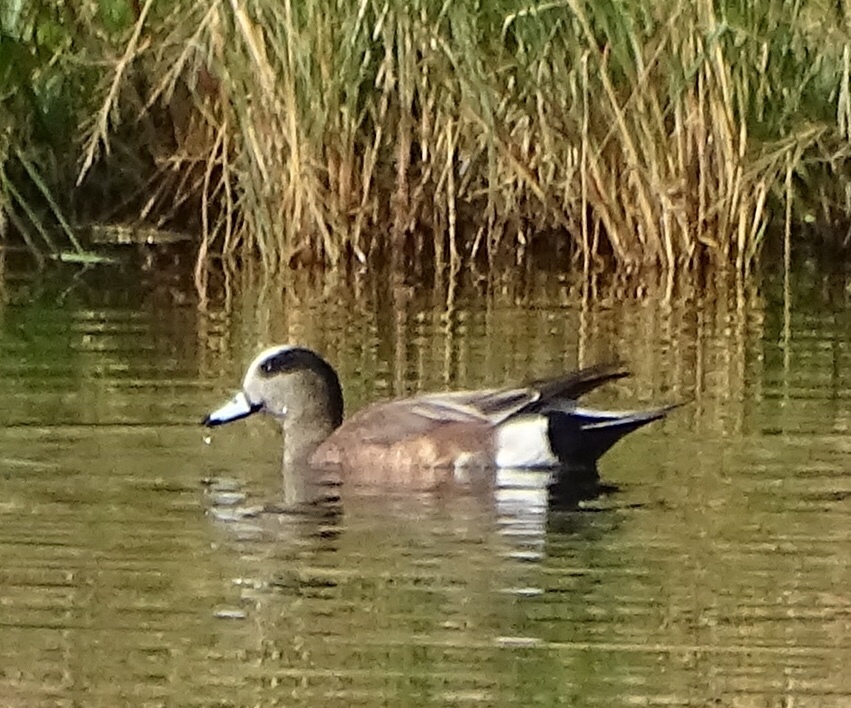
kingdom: Animalia
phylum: Chordata
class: Aves
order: Anseriformes
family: Anatidae
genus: Mareca
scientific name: Mareca americana
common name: American wigeon
